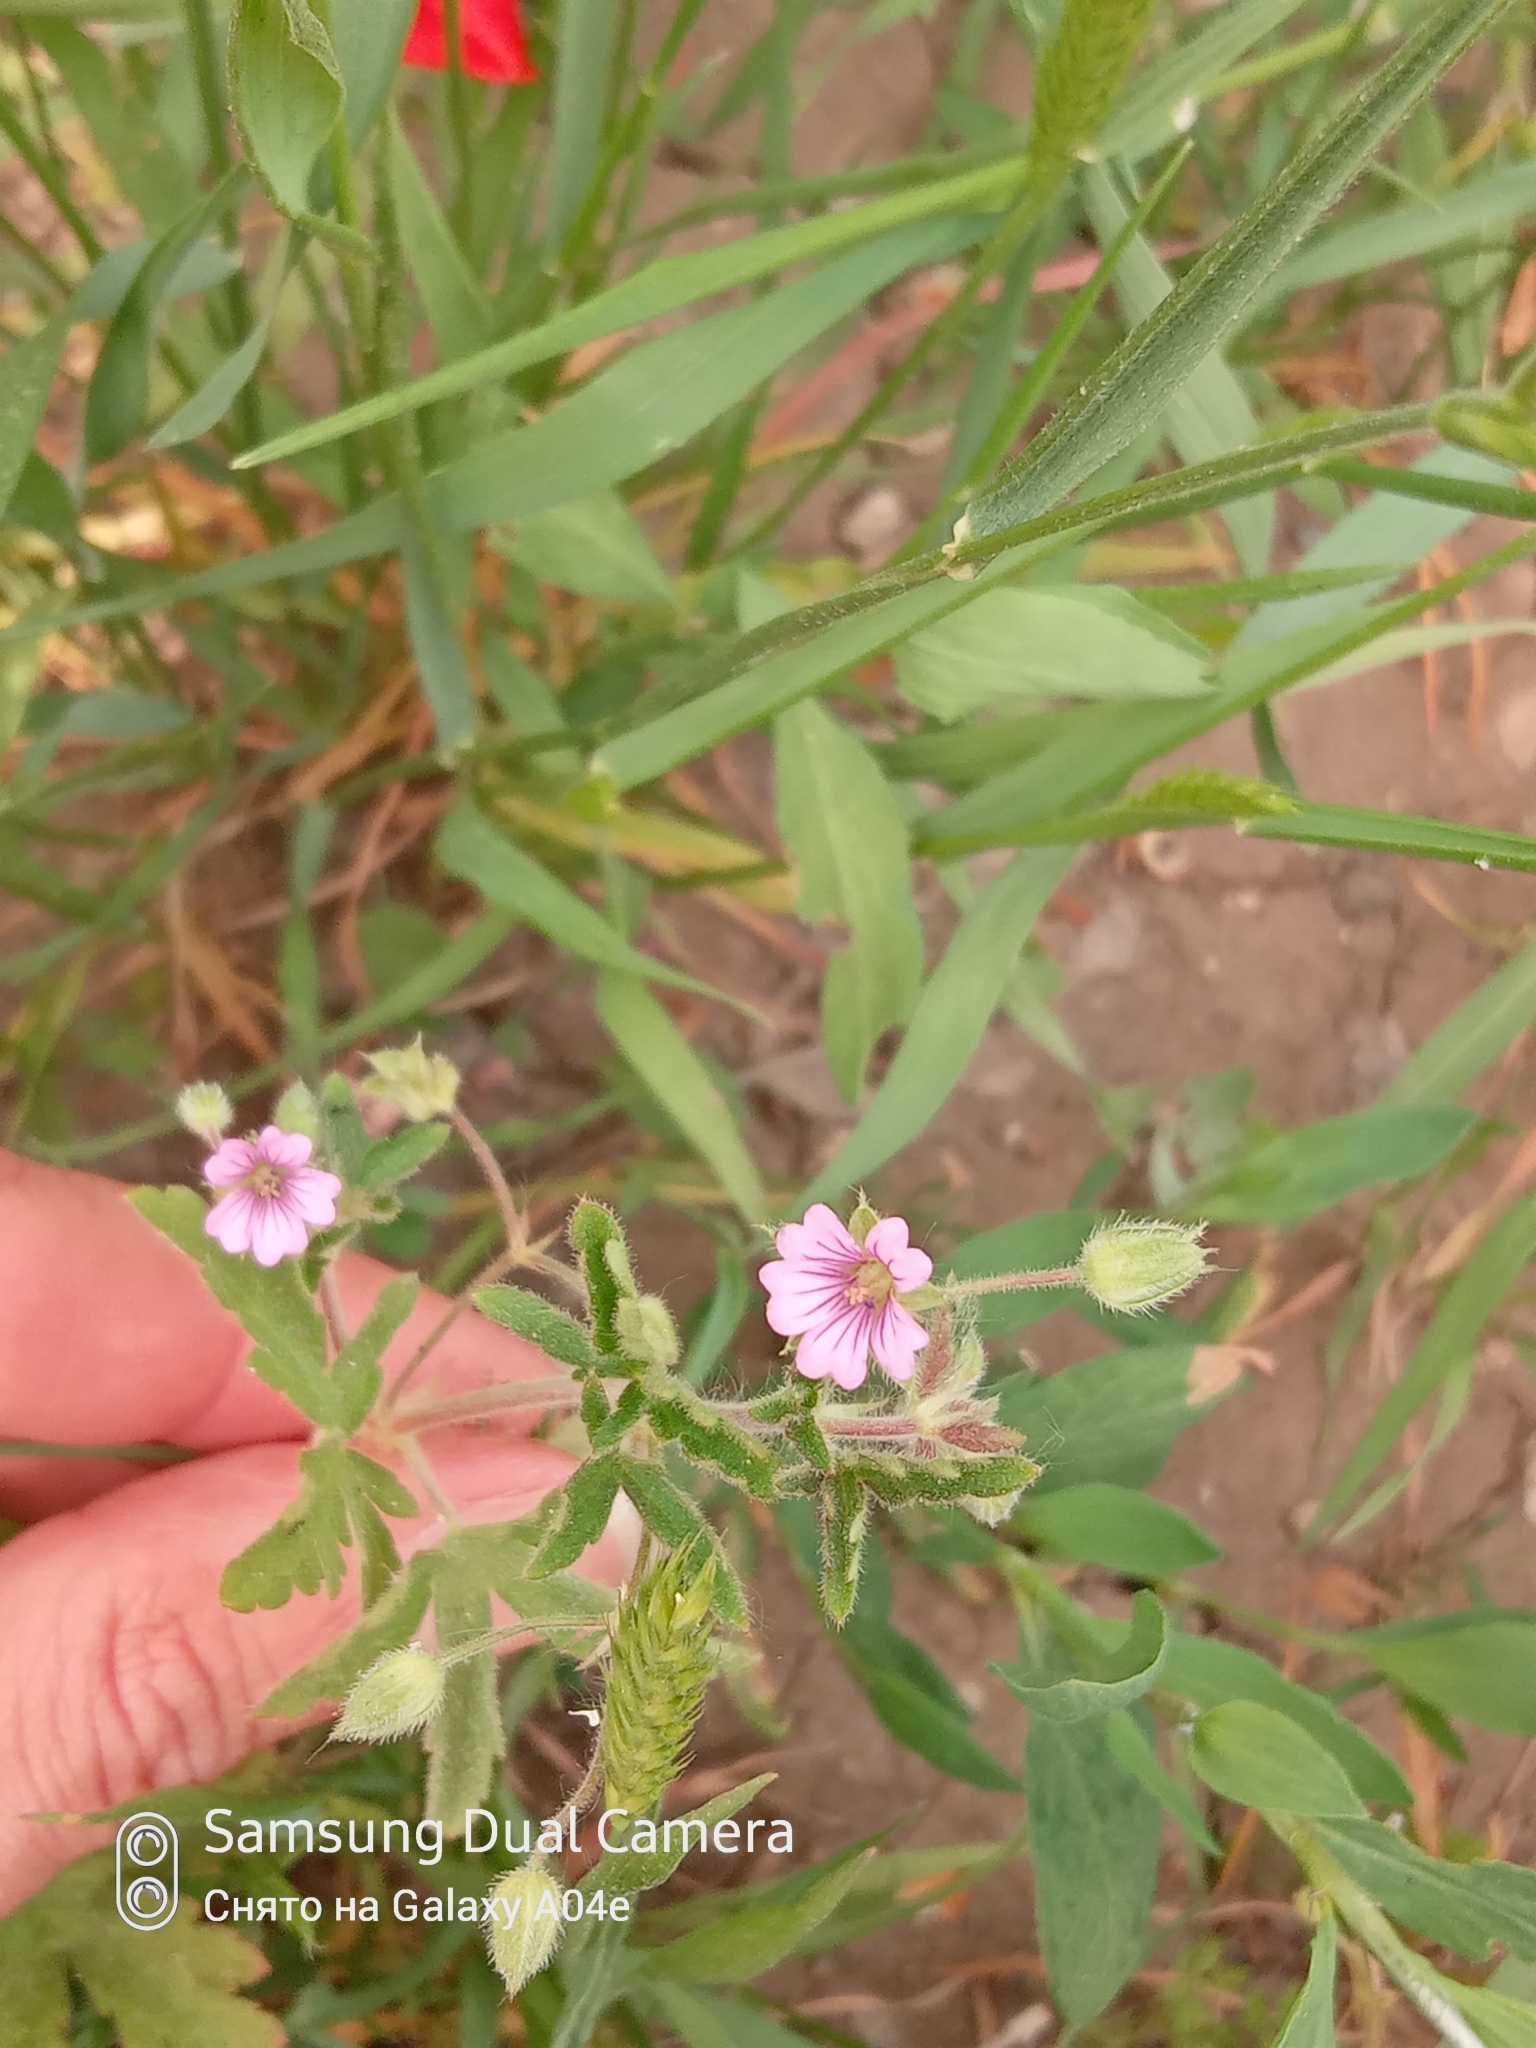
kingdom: Plantae
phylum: Tracheophyta
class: Magnoliopsida
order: Geraniales
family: Geraniaceae
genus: Geranium
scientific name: Geranium robertianum
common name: Herb-robert
